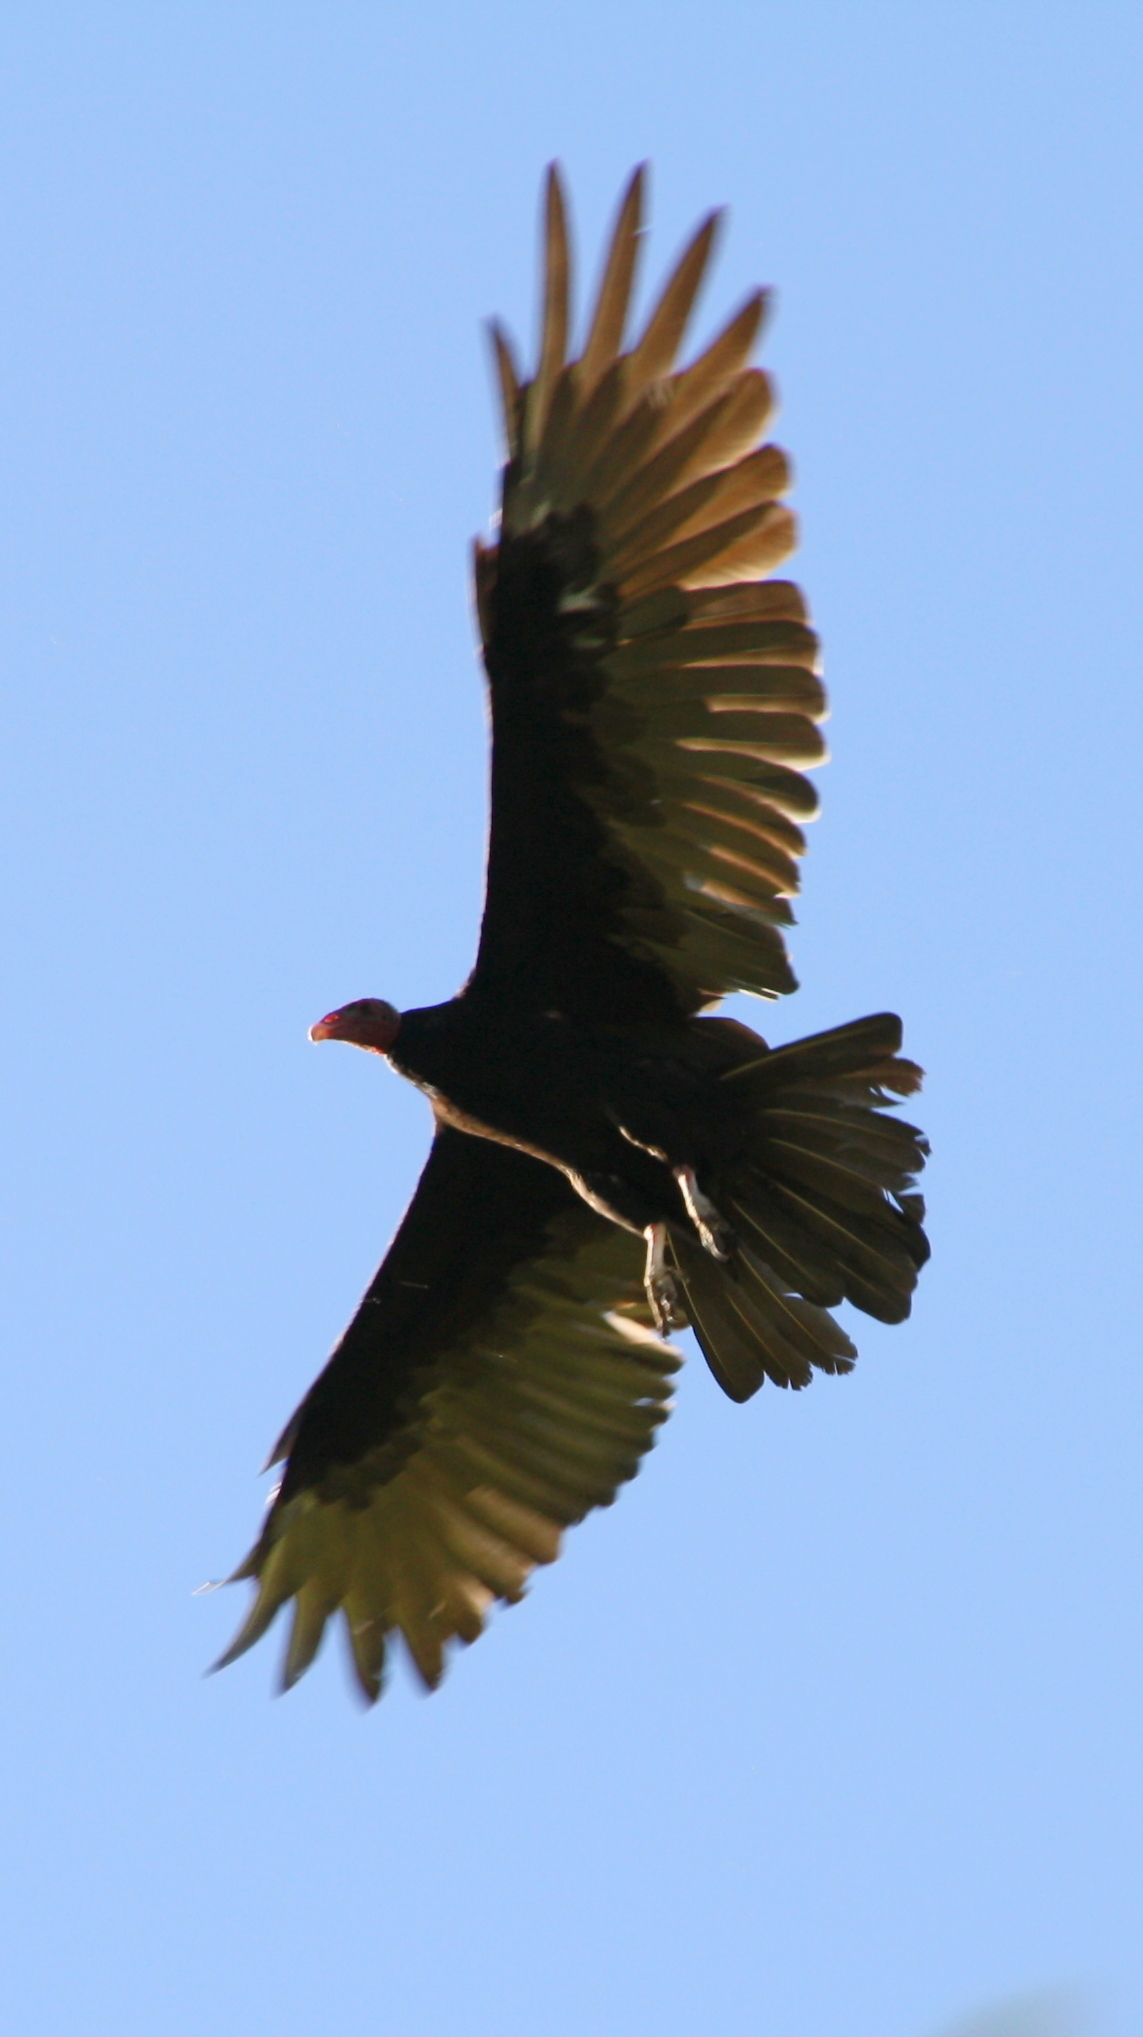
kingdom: Animalia
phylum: Chordata
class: Aves
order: Accipitriformes
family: Cathartidae
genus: Cathartes
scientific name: Cathartes aura
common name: Turkey vulture
